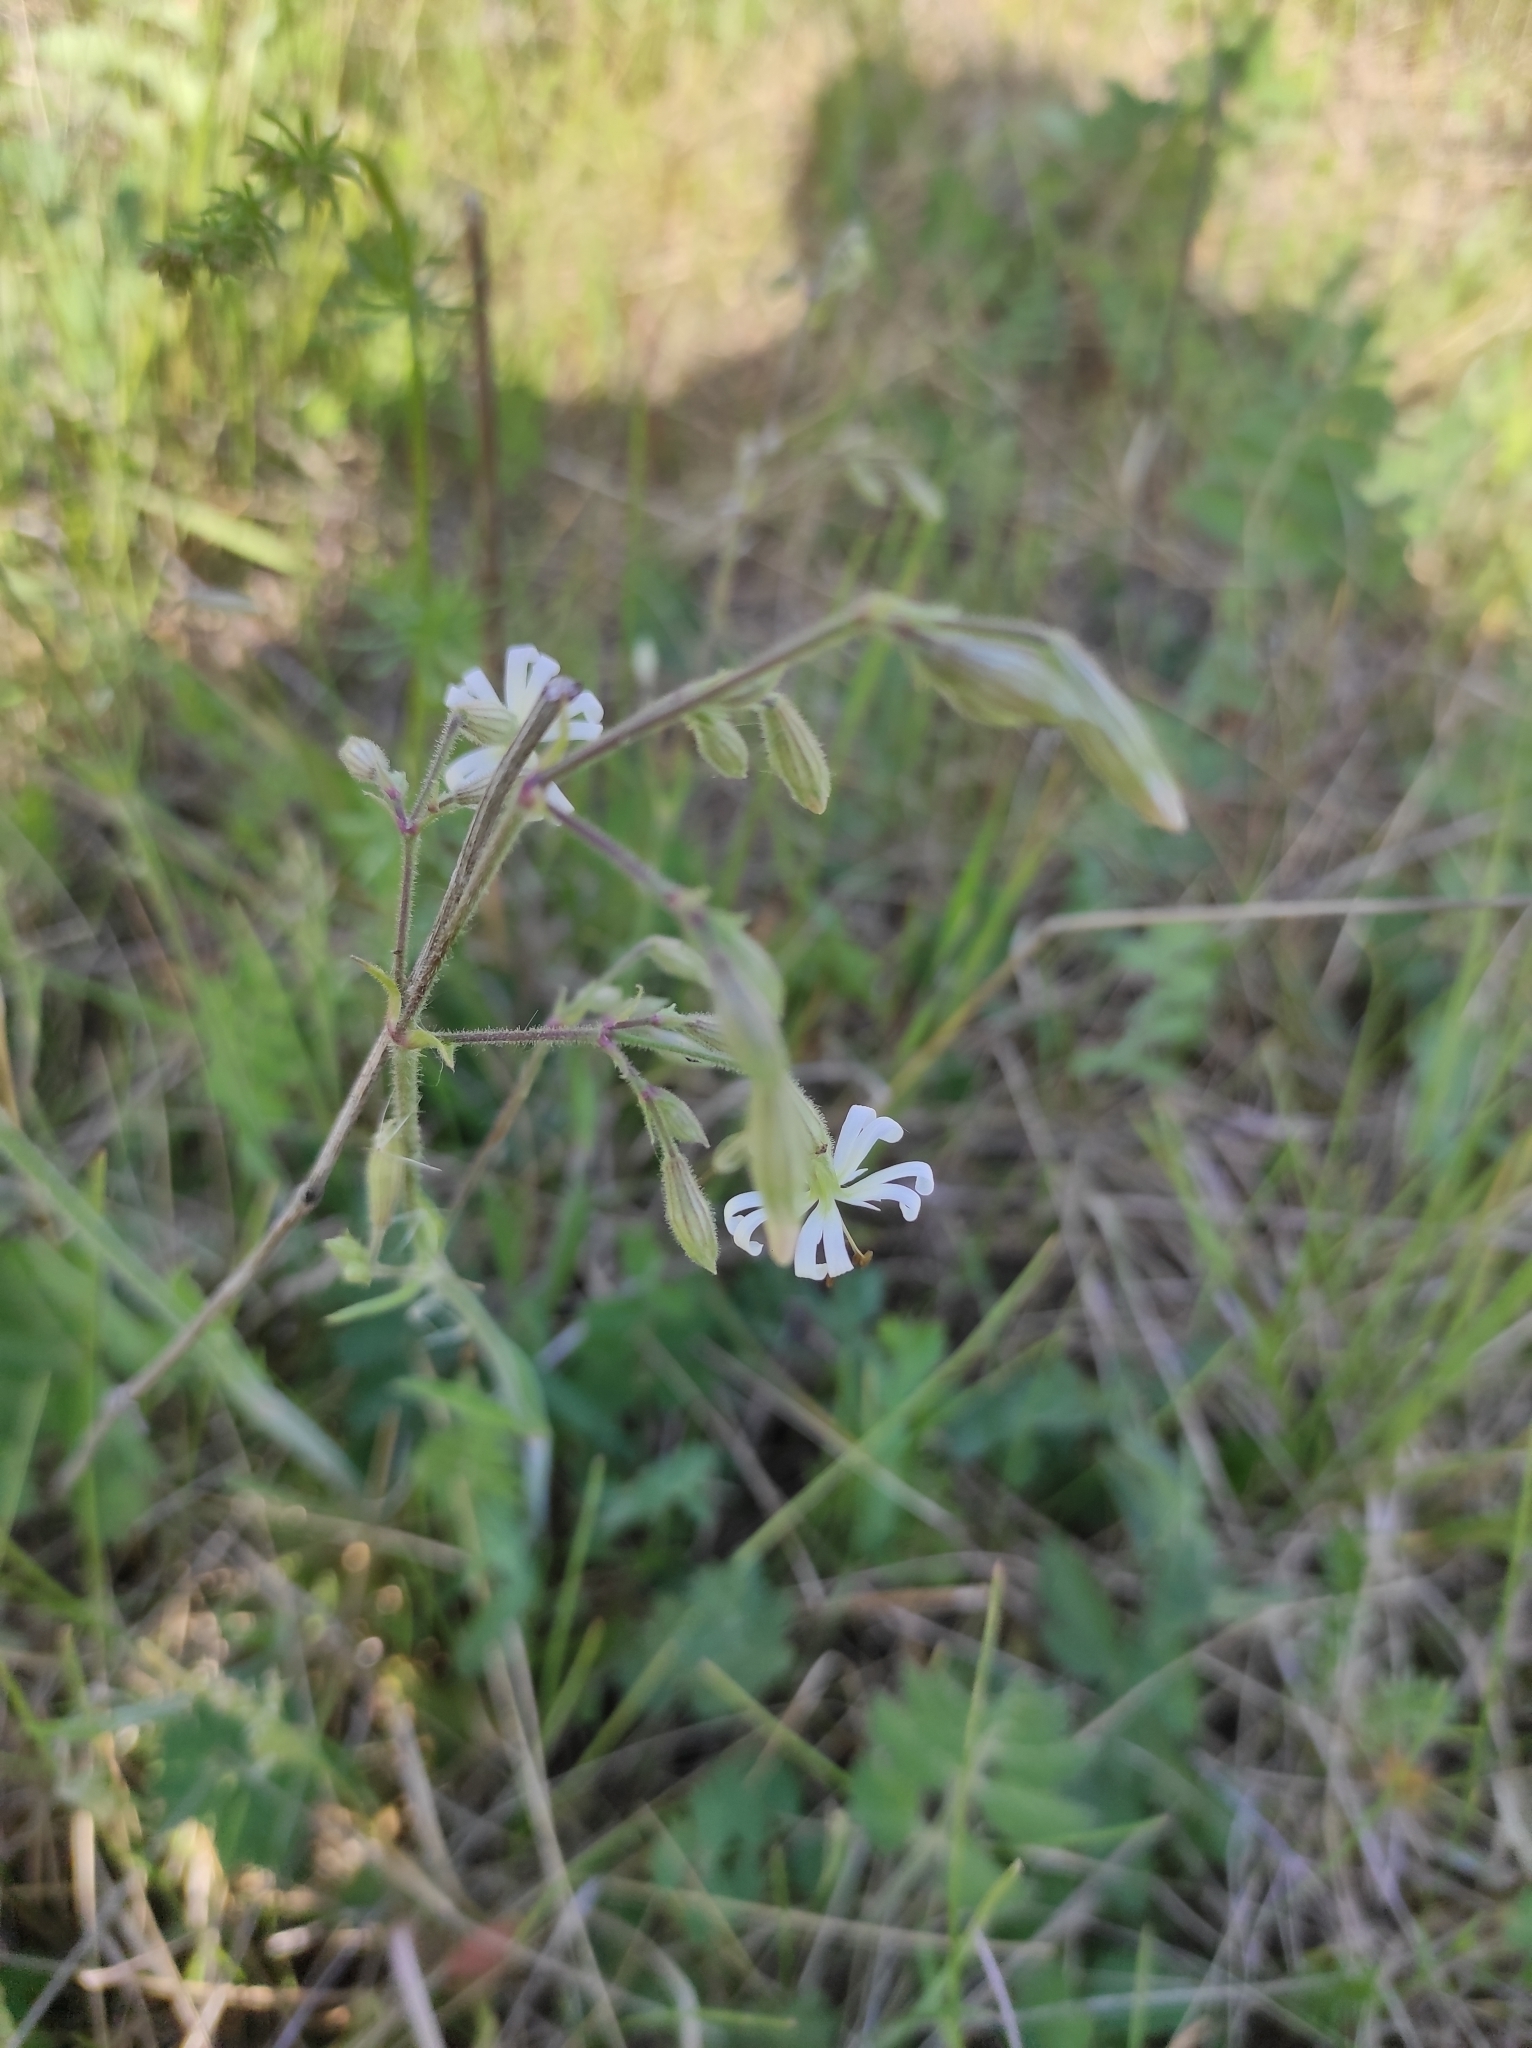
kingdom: Plantae
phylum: Tracheophyta
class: Magnoliopsida
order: Caryophyllales
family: Caryophyllaceae
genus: Silene
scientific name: Silene nutans
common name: Nottingham catchfly
